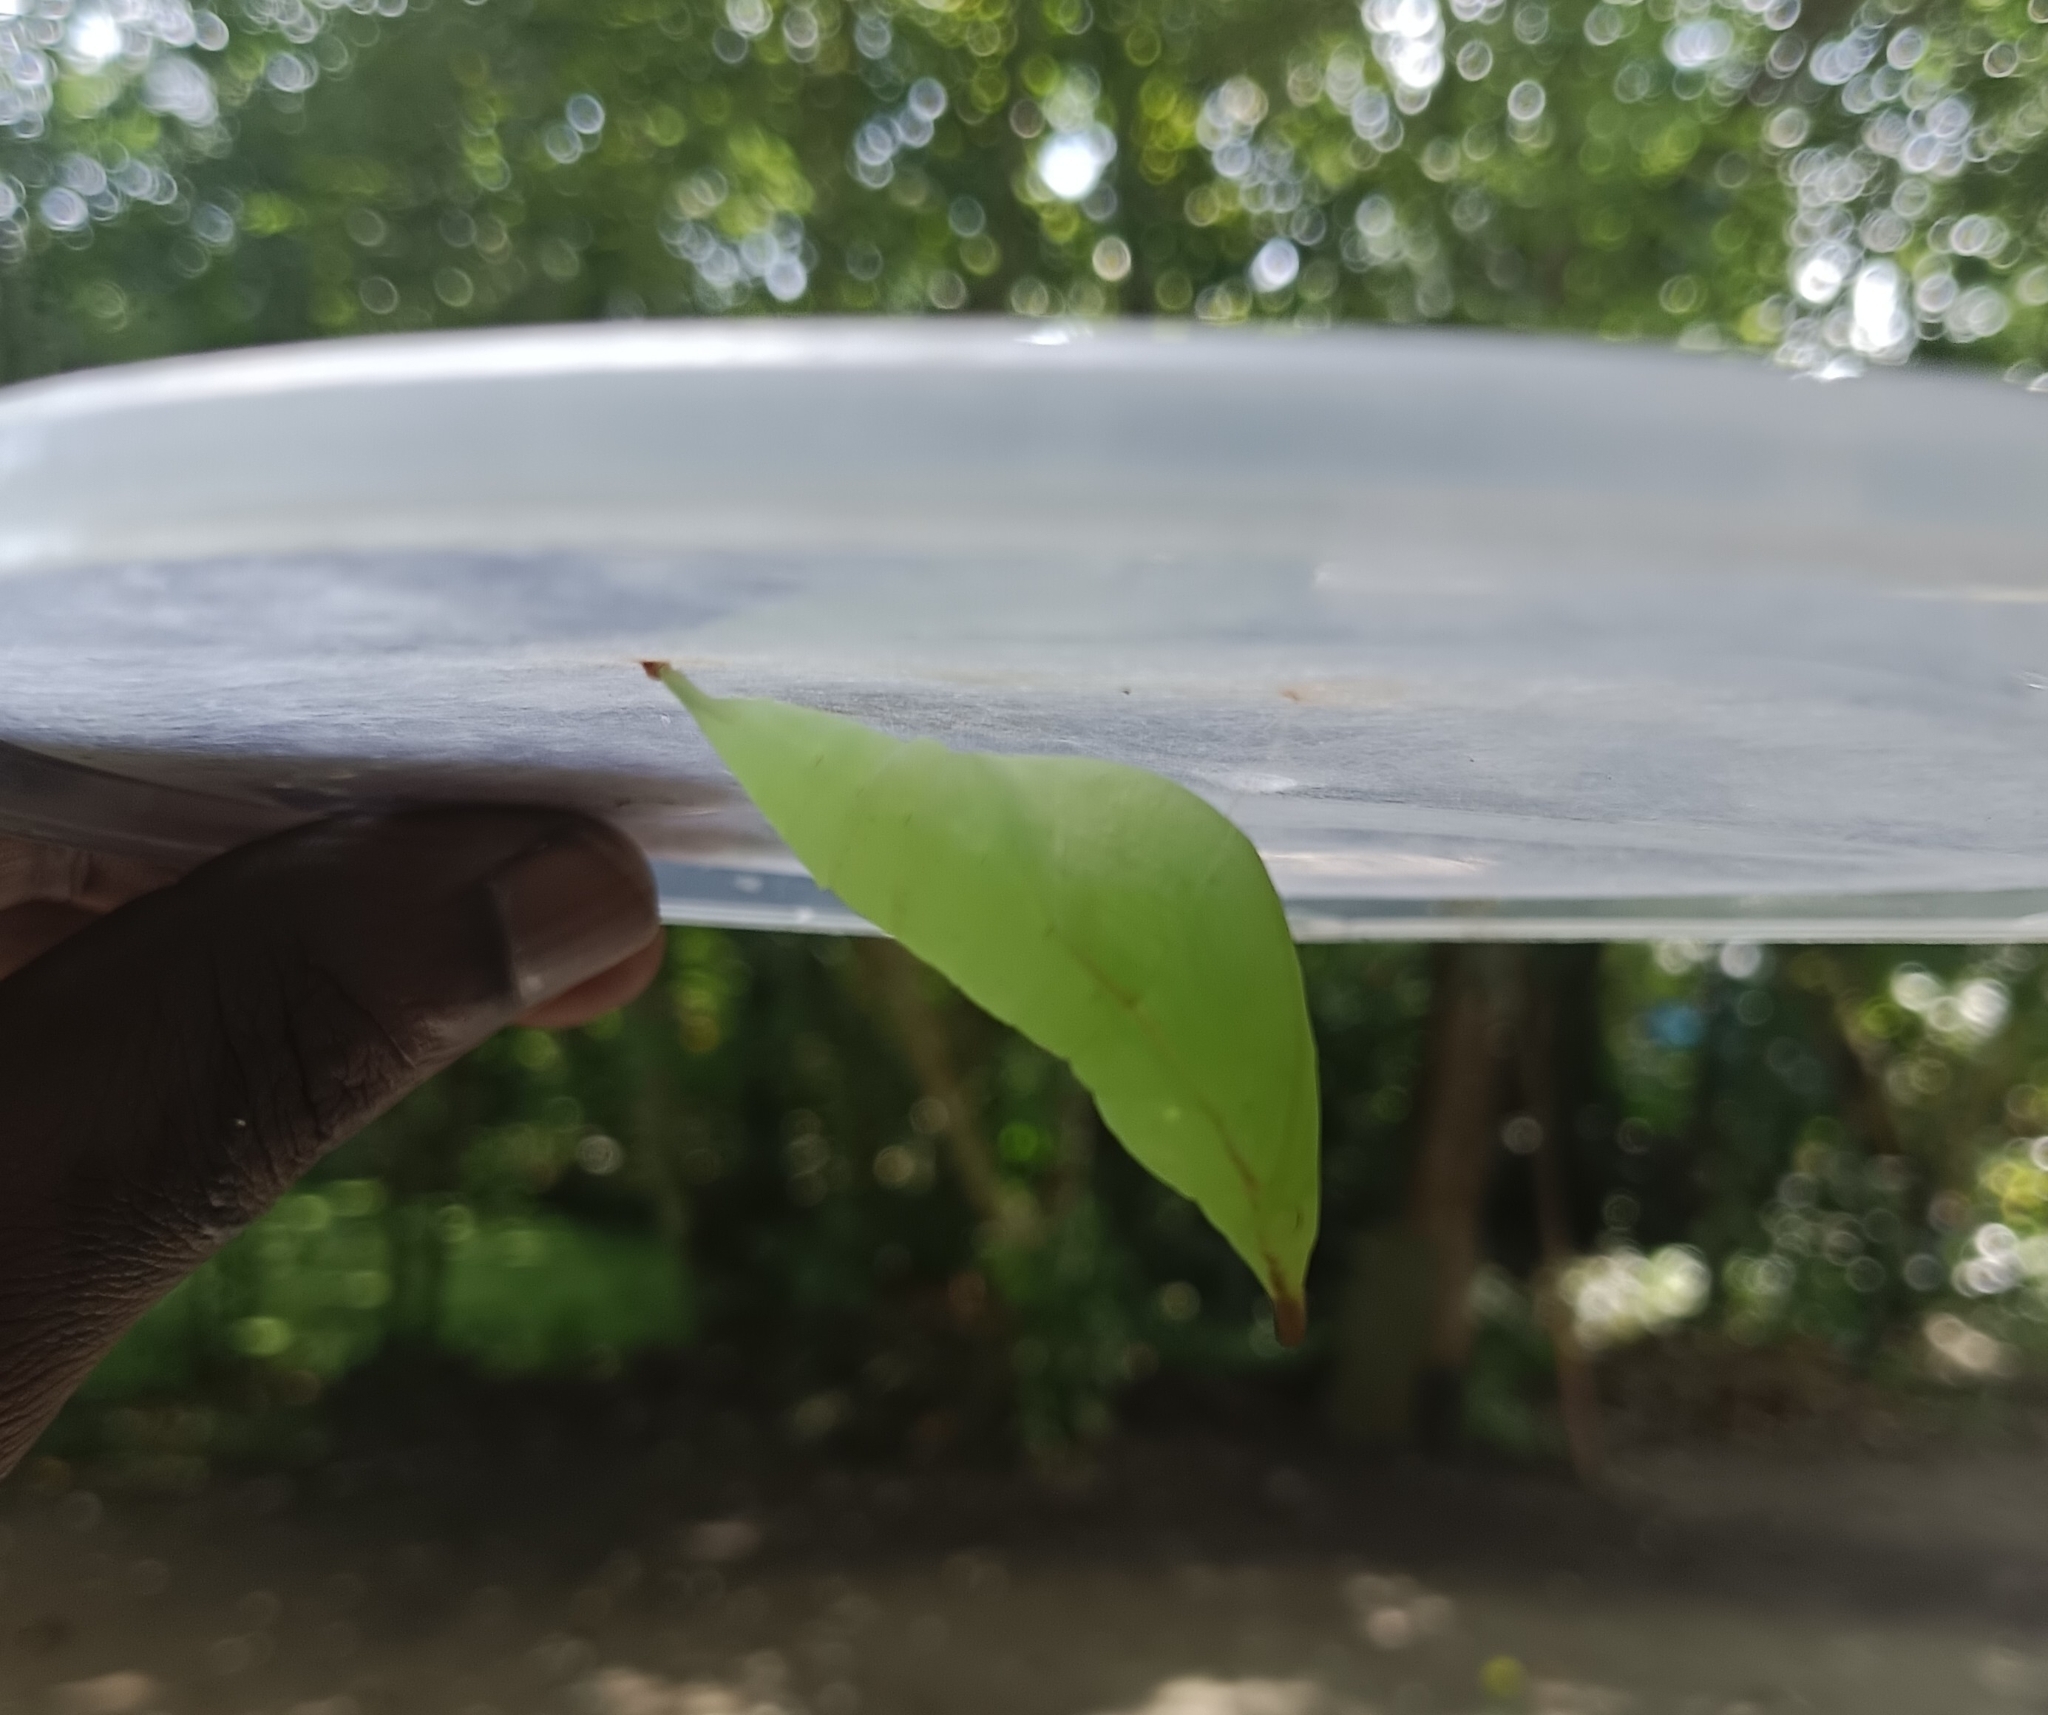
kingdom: Animalia
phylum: Arthropoda
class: Insecta
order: Lepidoptera
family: Pieridae
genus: Hebomoia
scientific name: Hebomoia glaucippe
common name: Great orange tip
